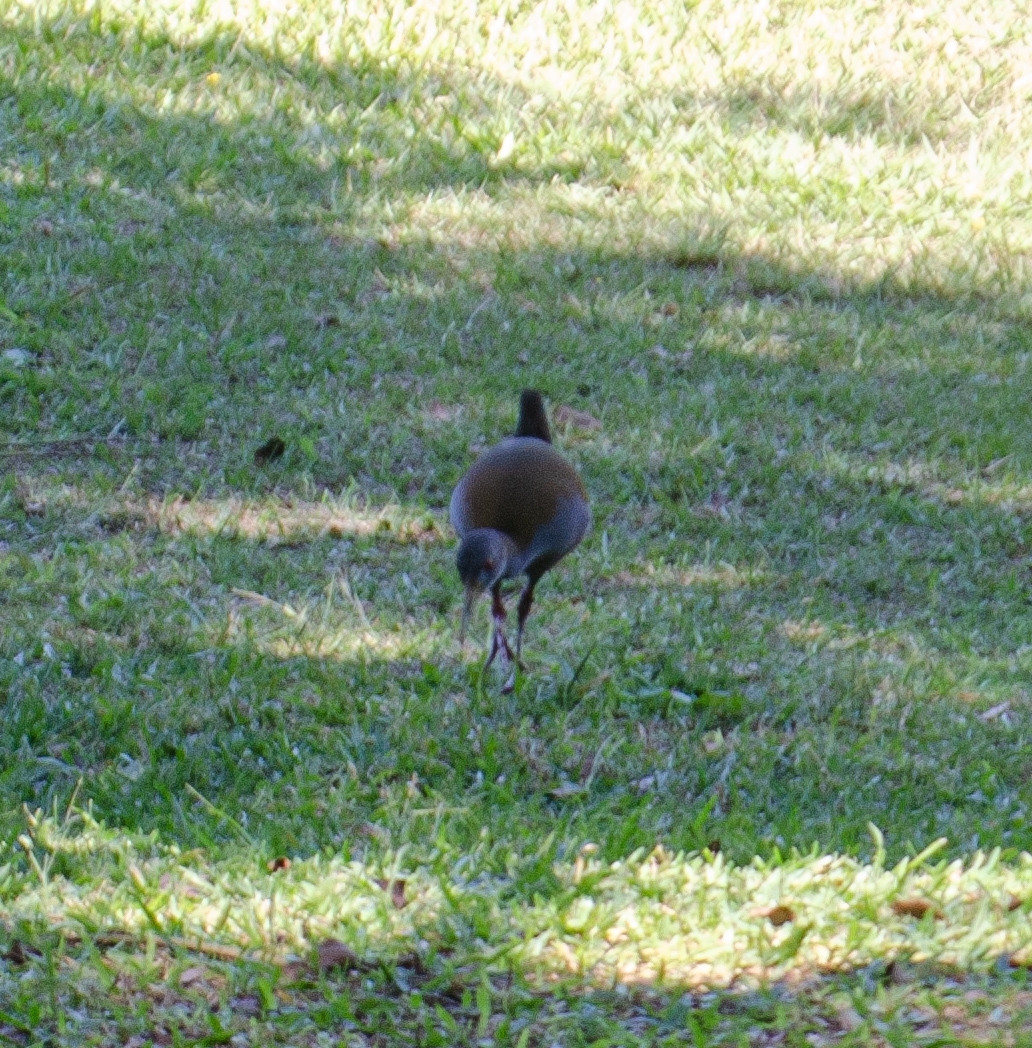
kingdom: Animalia
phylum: Chordata
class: Aves
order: Gruiformes
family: Rallidae
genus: Aramides
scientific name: Aramides saracura
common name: Slaty-breasted wood rail
